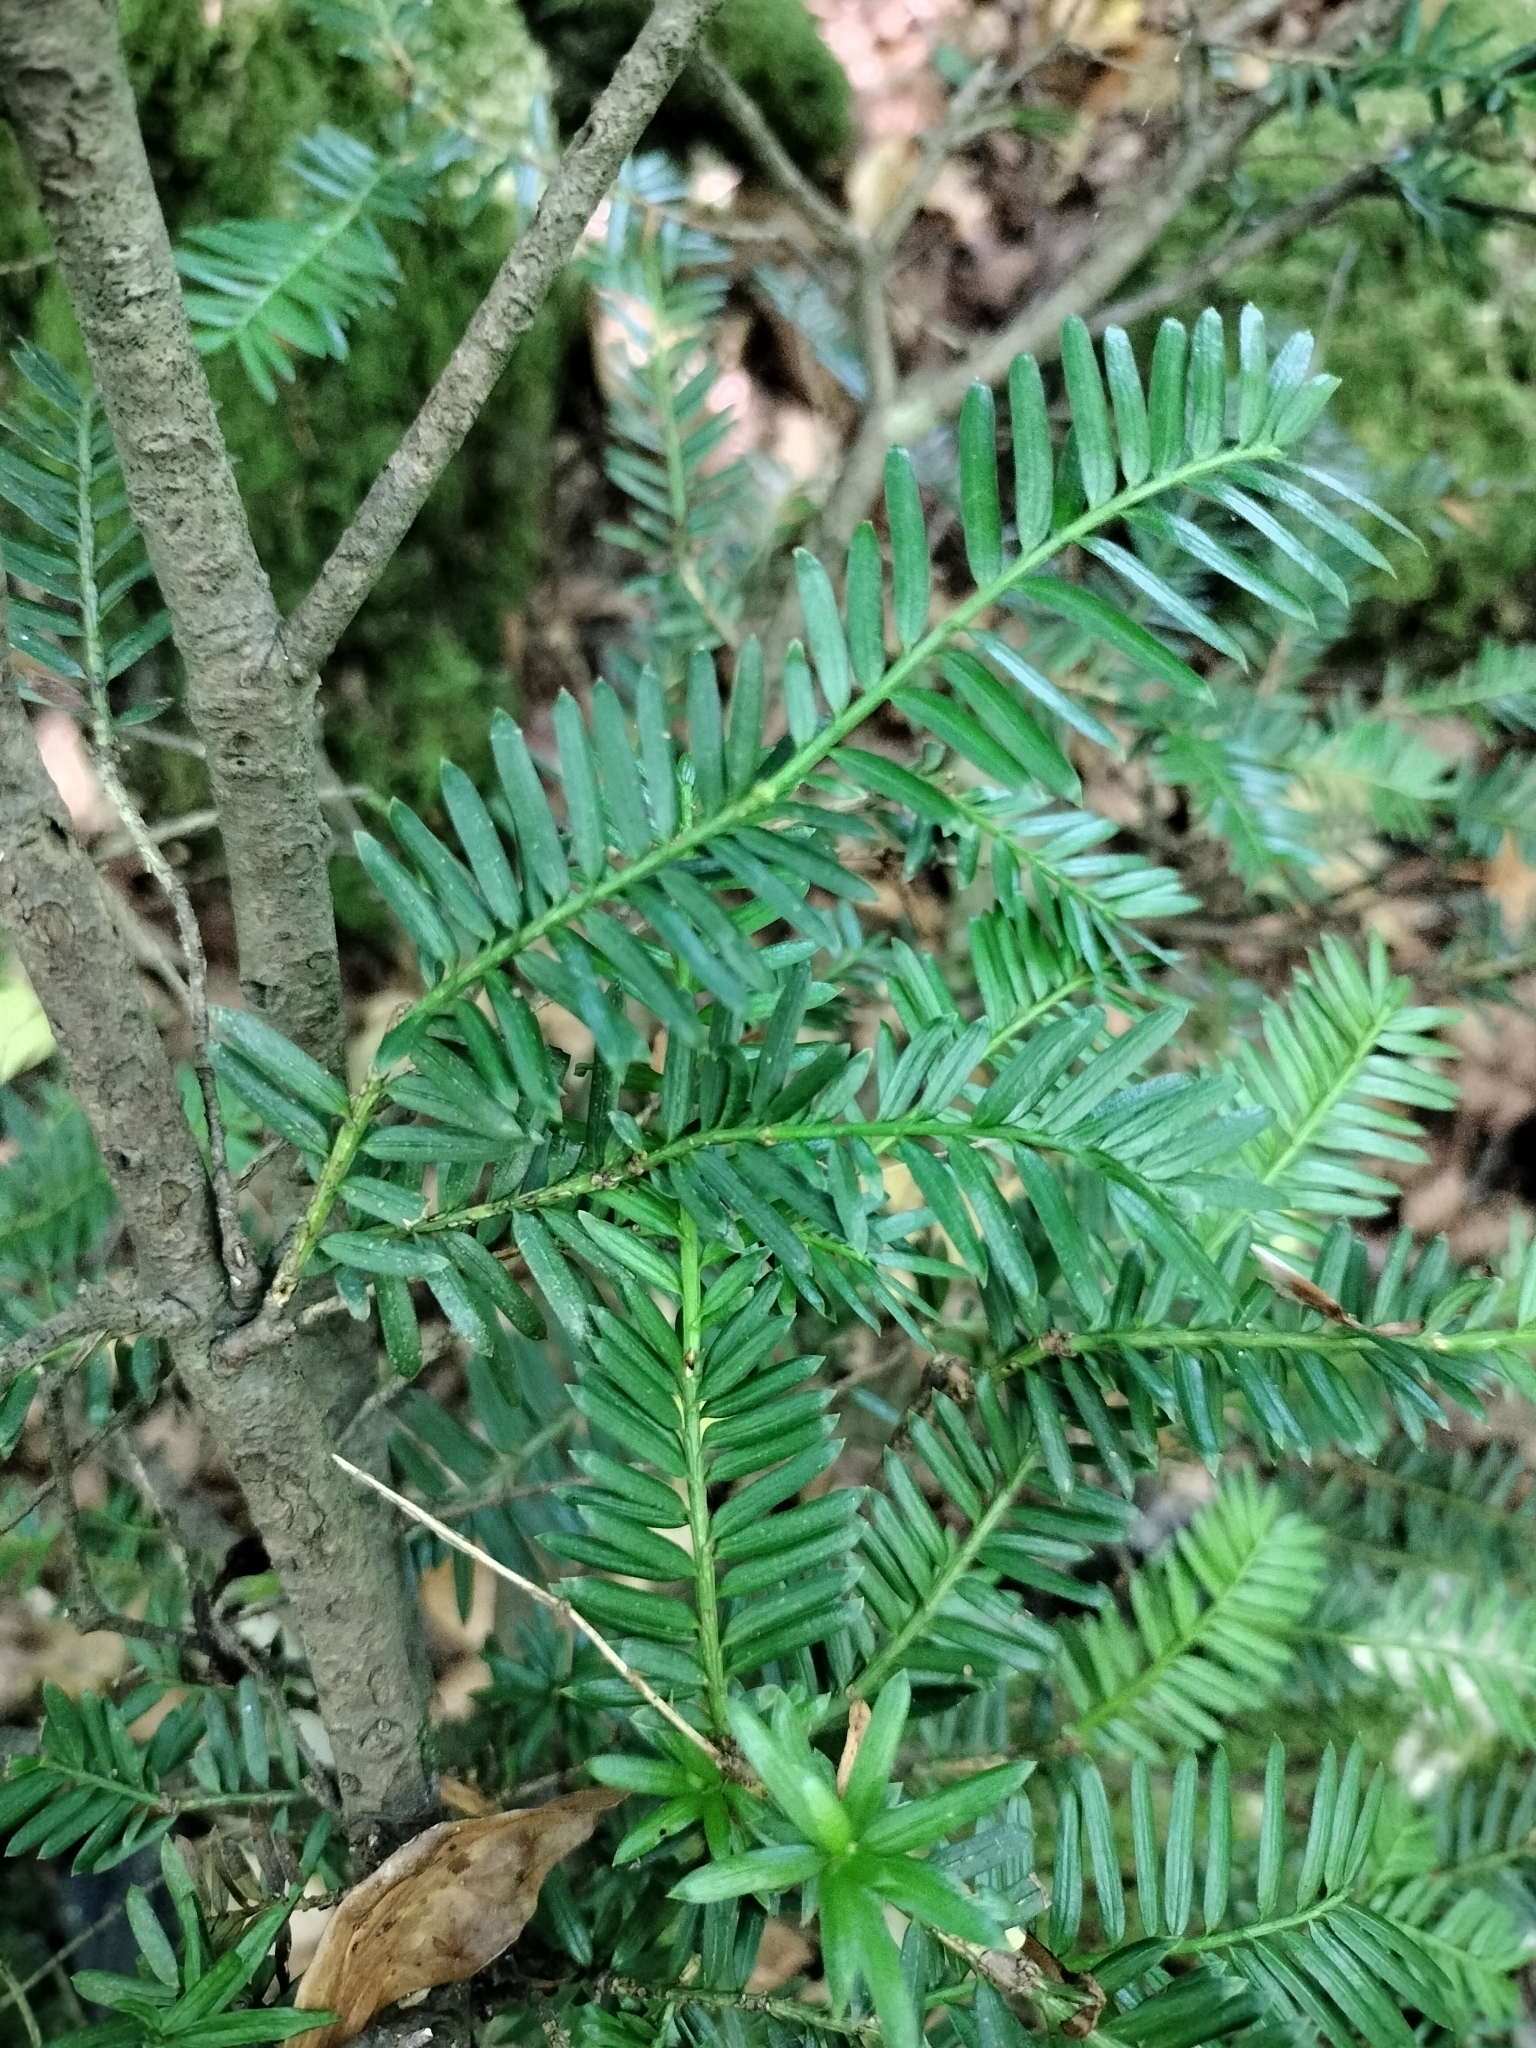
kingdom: Plantae
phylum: Tracheophyta
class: Pinopsida
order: Pinales
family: Taxaceae
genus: Taxus
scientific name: Taxus baccata
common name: Yew
